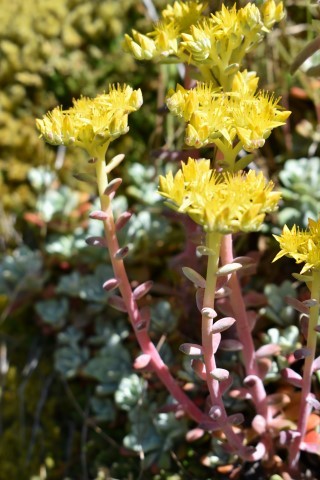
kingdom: Plantae
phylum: Tracheophyta
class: Magnoliopsida
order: Saxifragales
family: Crassulaceae
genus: Sedum
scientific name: Sedum spathulifolium
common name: Colorado stonecrop
